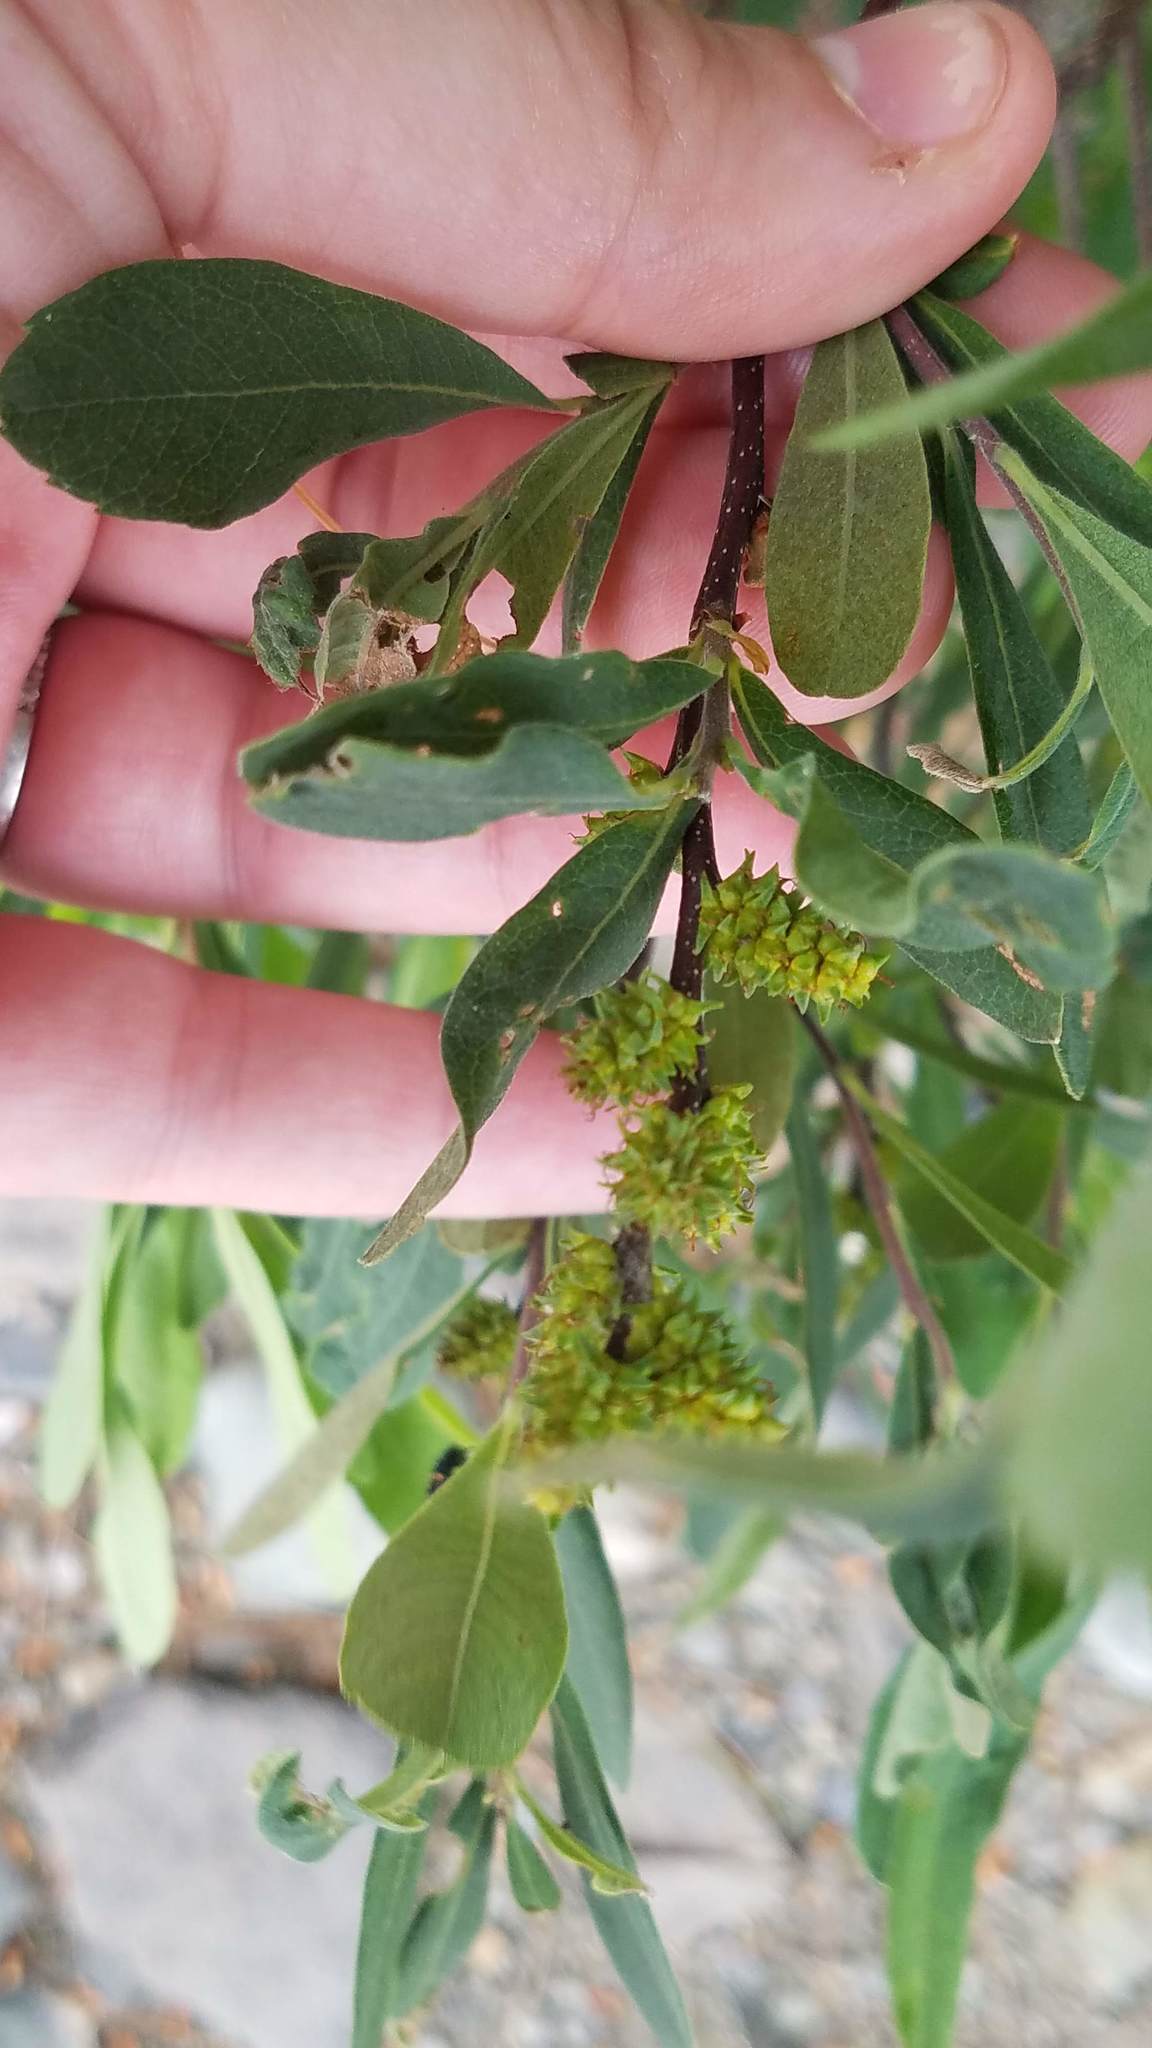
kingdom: Plantae
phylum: Tracheophyta
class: Magnoliopsida
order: Fagales
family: Myricaceae
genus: Myrica
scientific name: Myrica gale
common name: Sweet gale
